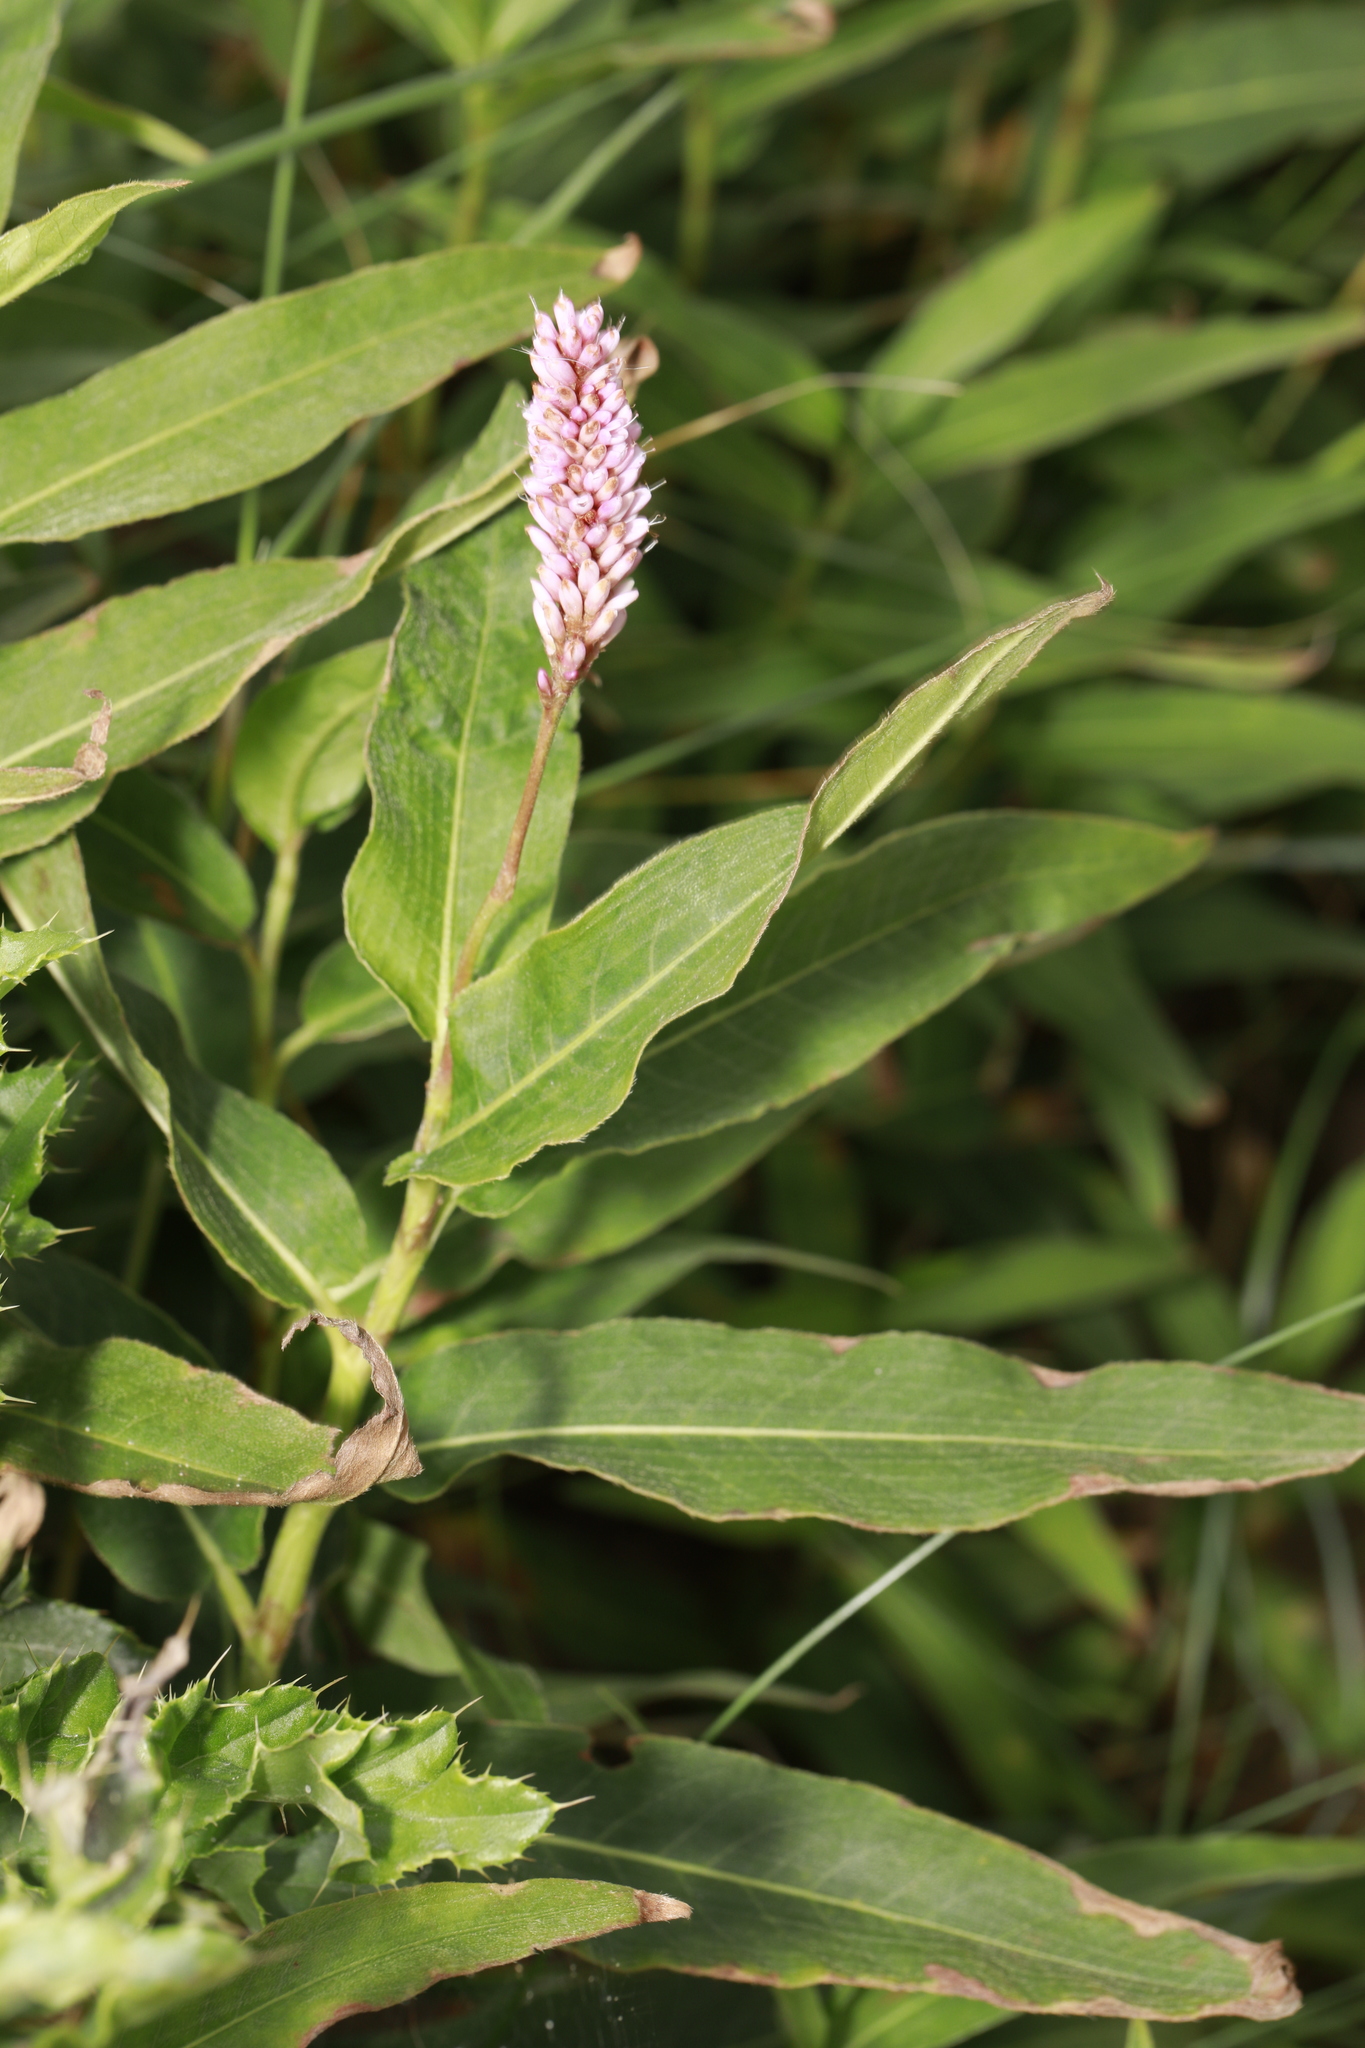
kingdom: Plantae
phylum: Tracheophyta
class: Magnoliopsida
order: Caryophyllales
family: Polygonaceae
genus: Persicaria
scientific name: Persicaria amphibia
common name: Amphibious bistort
